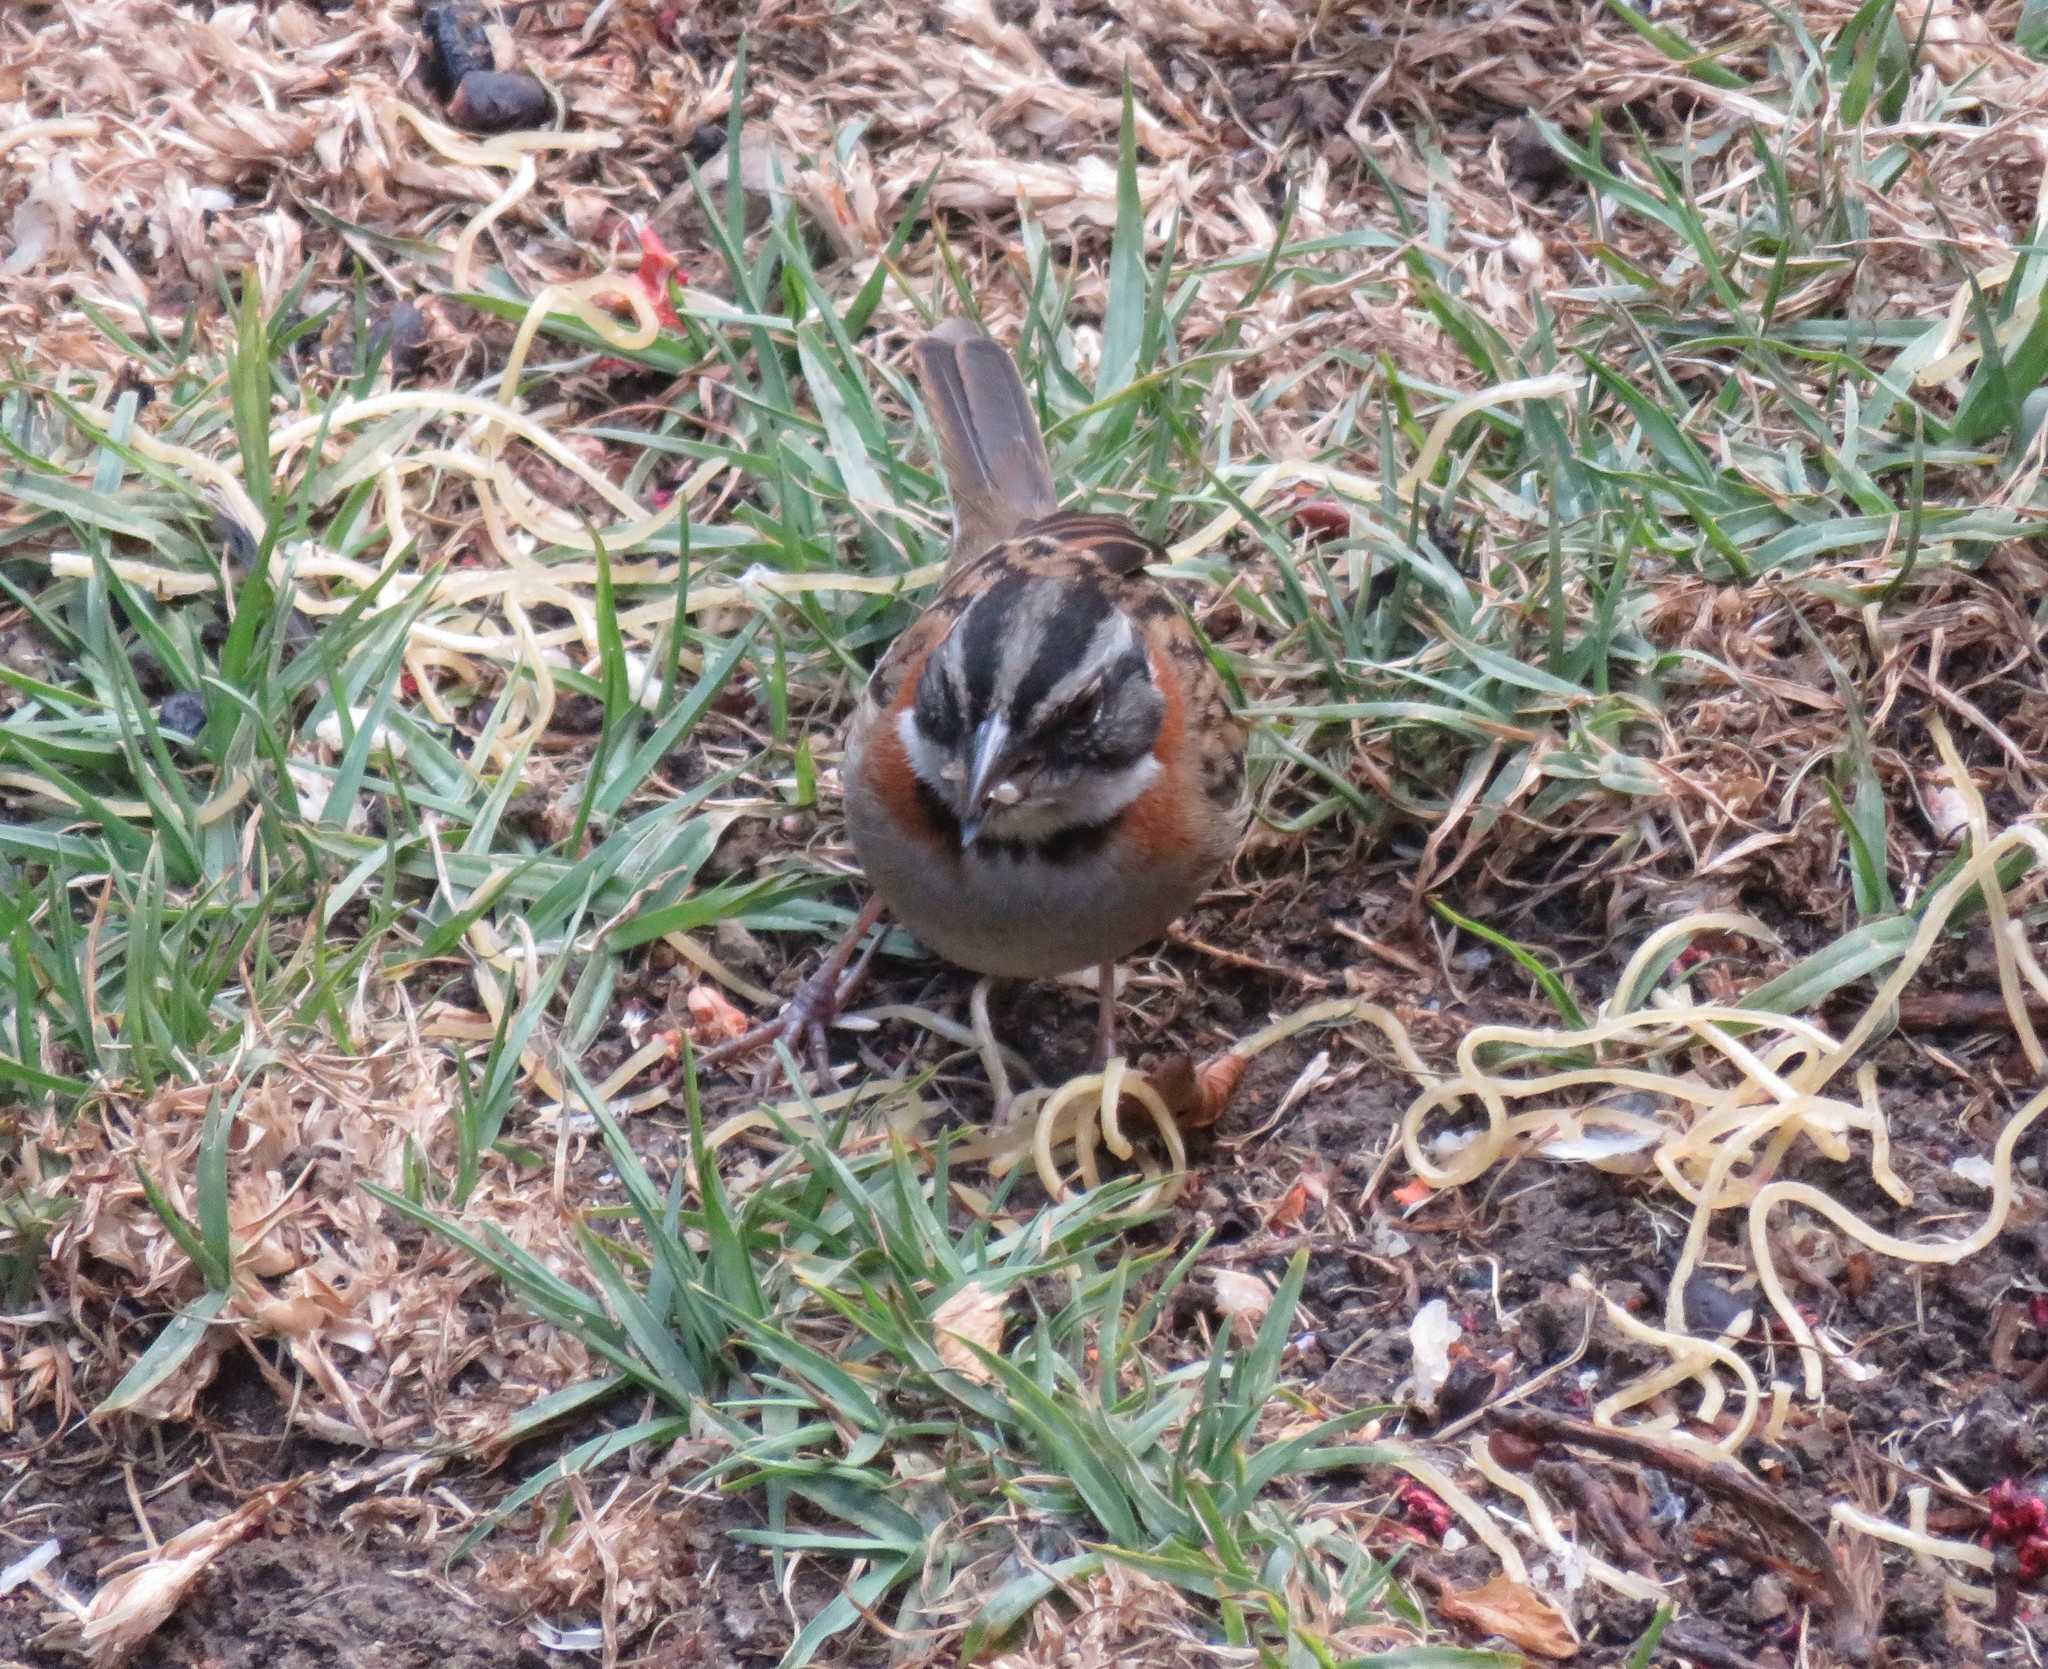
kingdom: Animalia
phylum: Chordata
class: Aves
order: Passeriformes
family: Passerellidae
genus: Zonotrichia
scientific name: Zonotrichia capensis
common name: Rufous-collared sparrow
